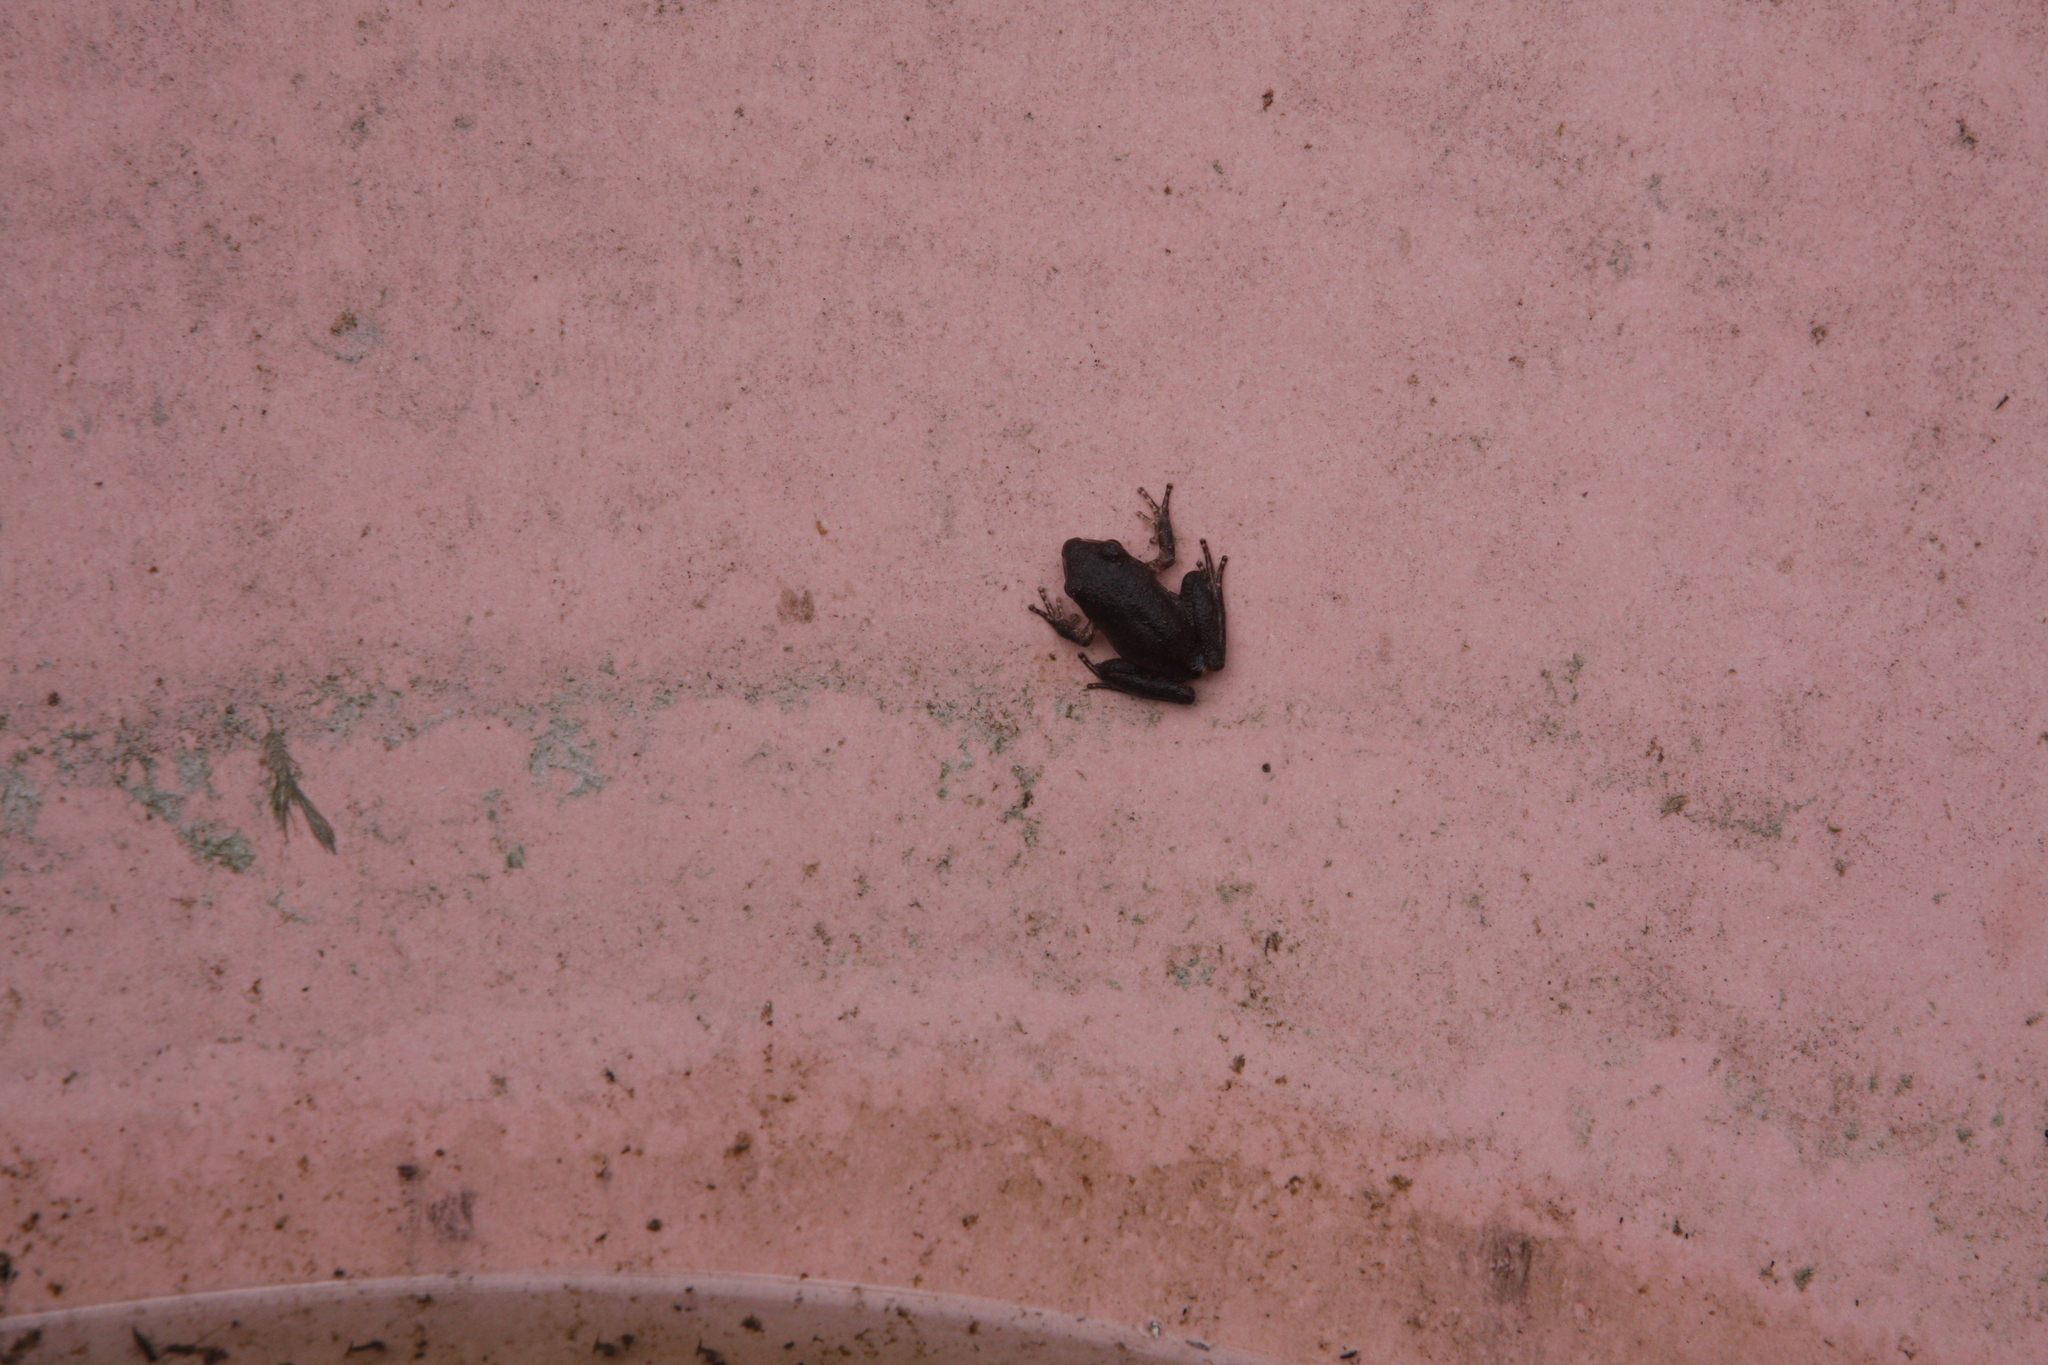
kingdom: Animalia
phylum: Chordata
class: Amphibia
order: Anura
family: Pelodryadidae
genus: Ranoidea
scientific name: Ranoidea lesueurii
